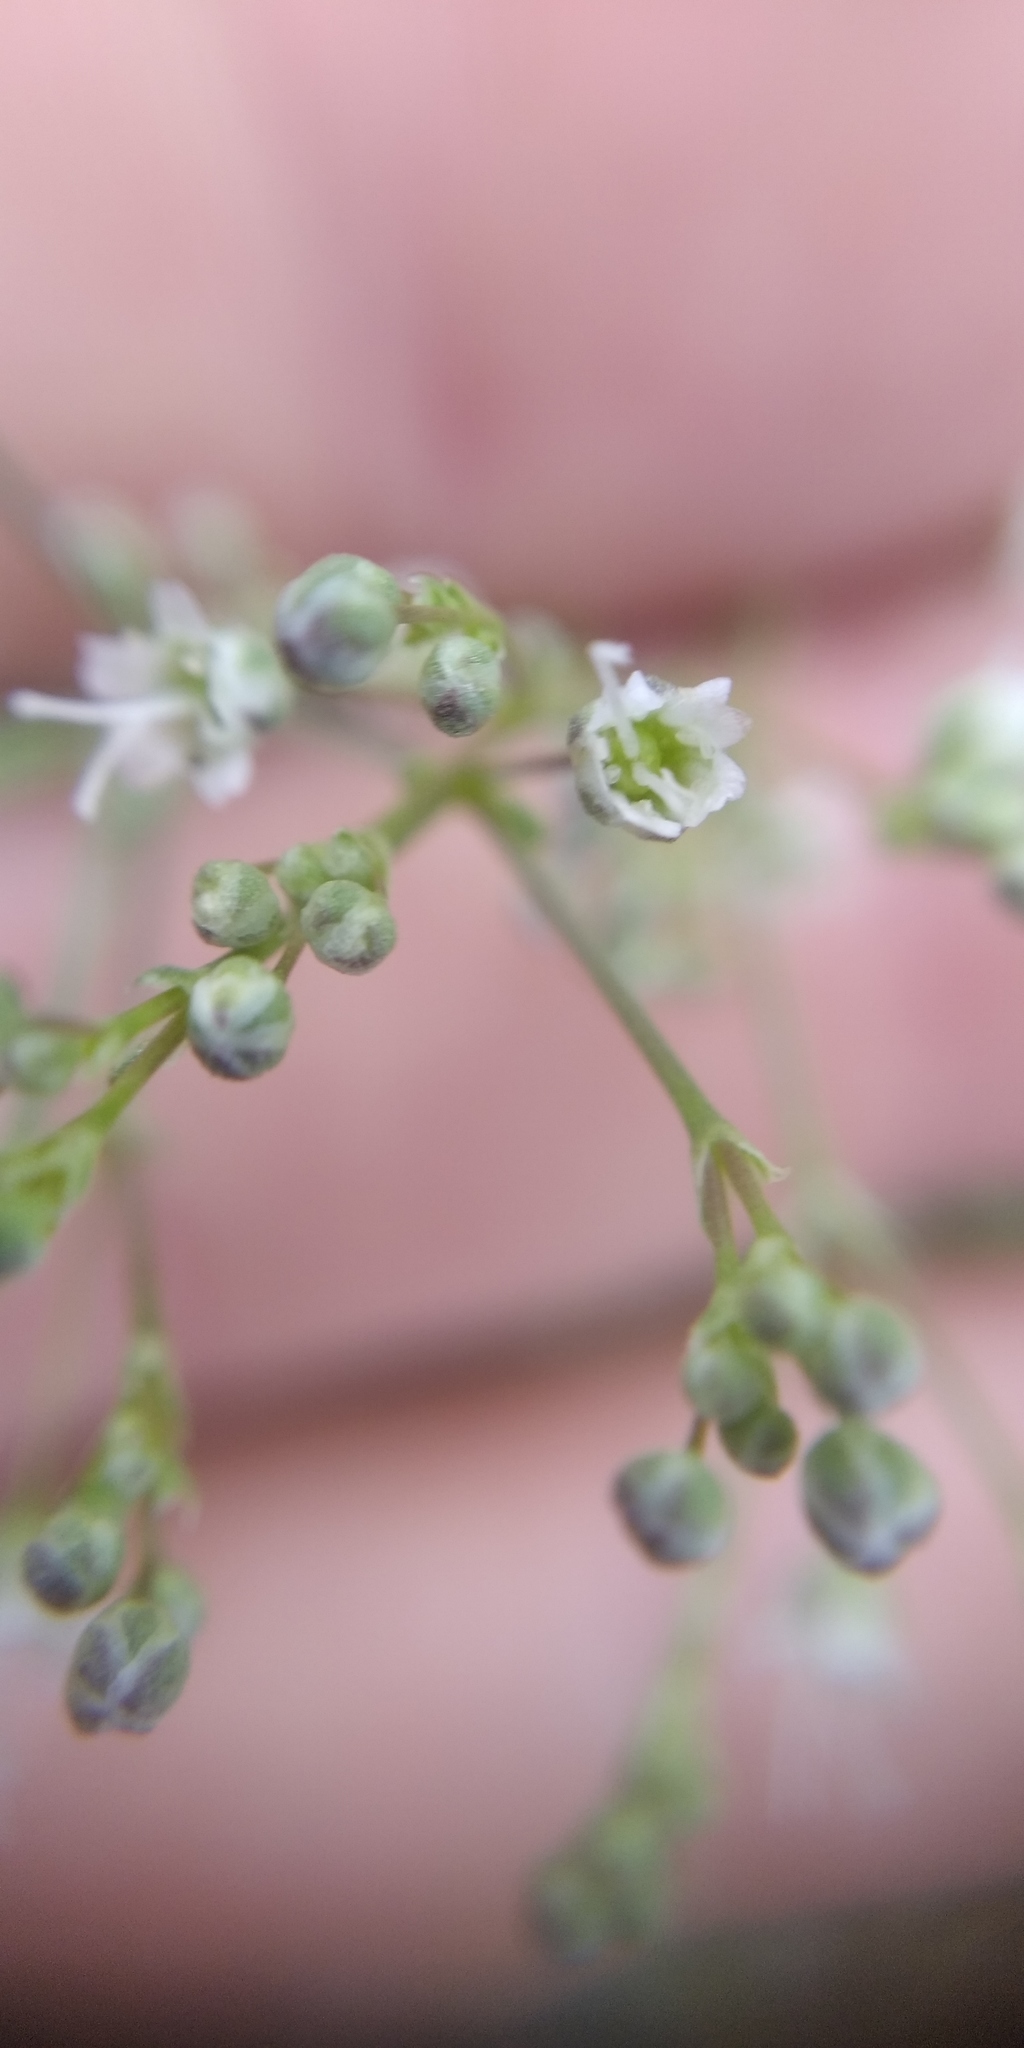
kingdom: Plantae
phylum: Tracheophyta
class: Magnoliopsida
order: Caryophyllales
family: Caryophyllaceae
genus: Gypsophila
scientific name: Gypsophila paniculata
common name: Baby's-breath
